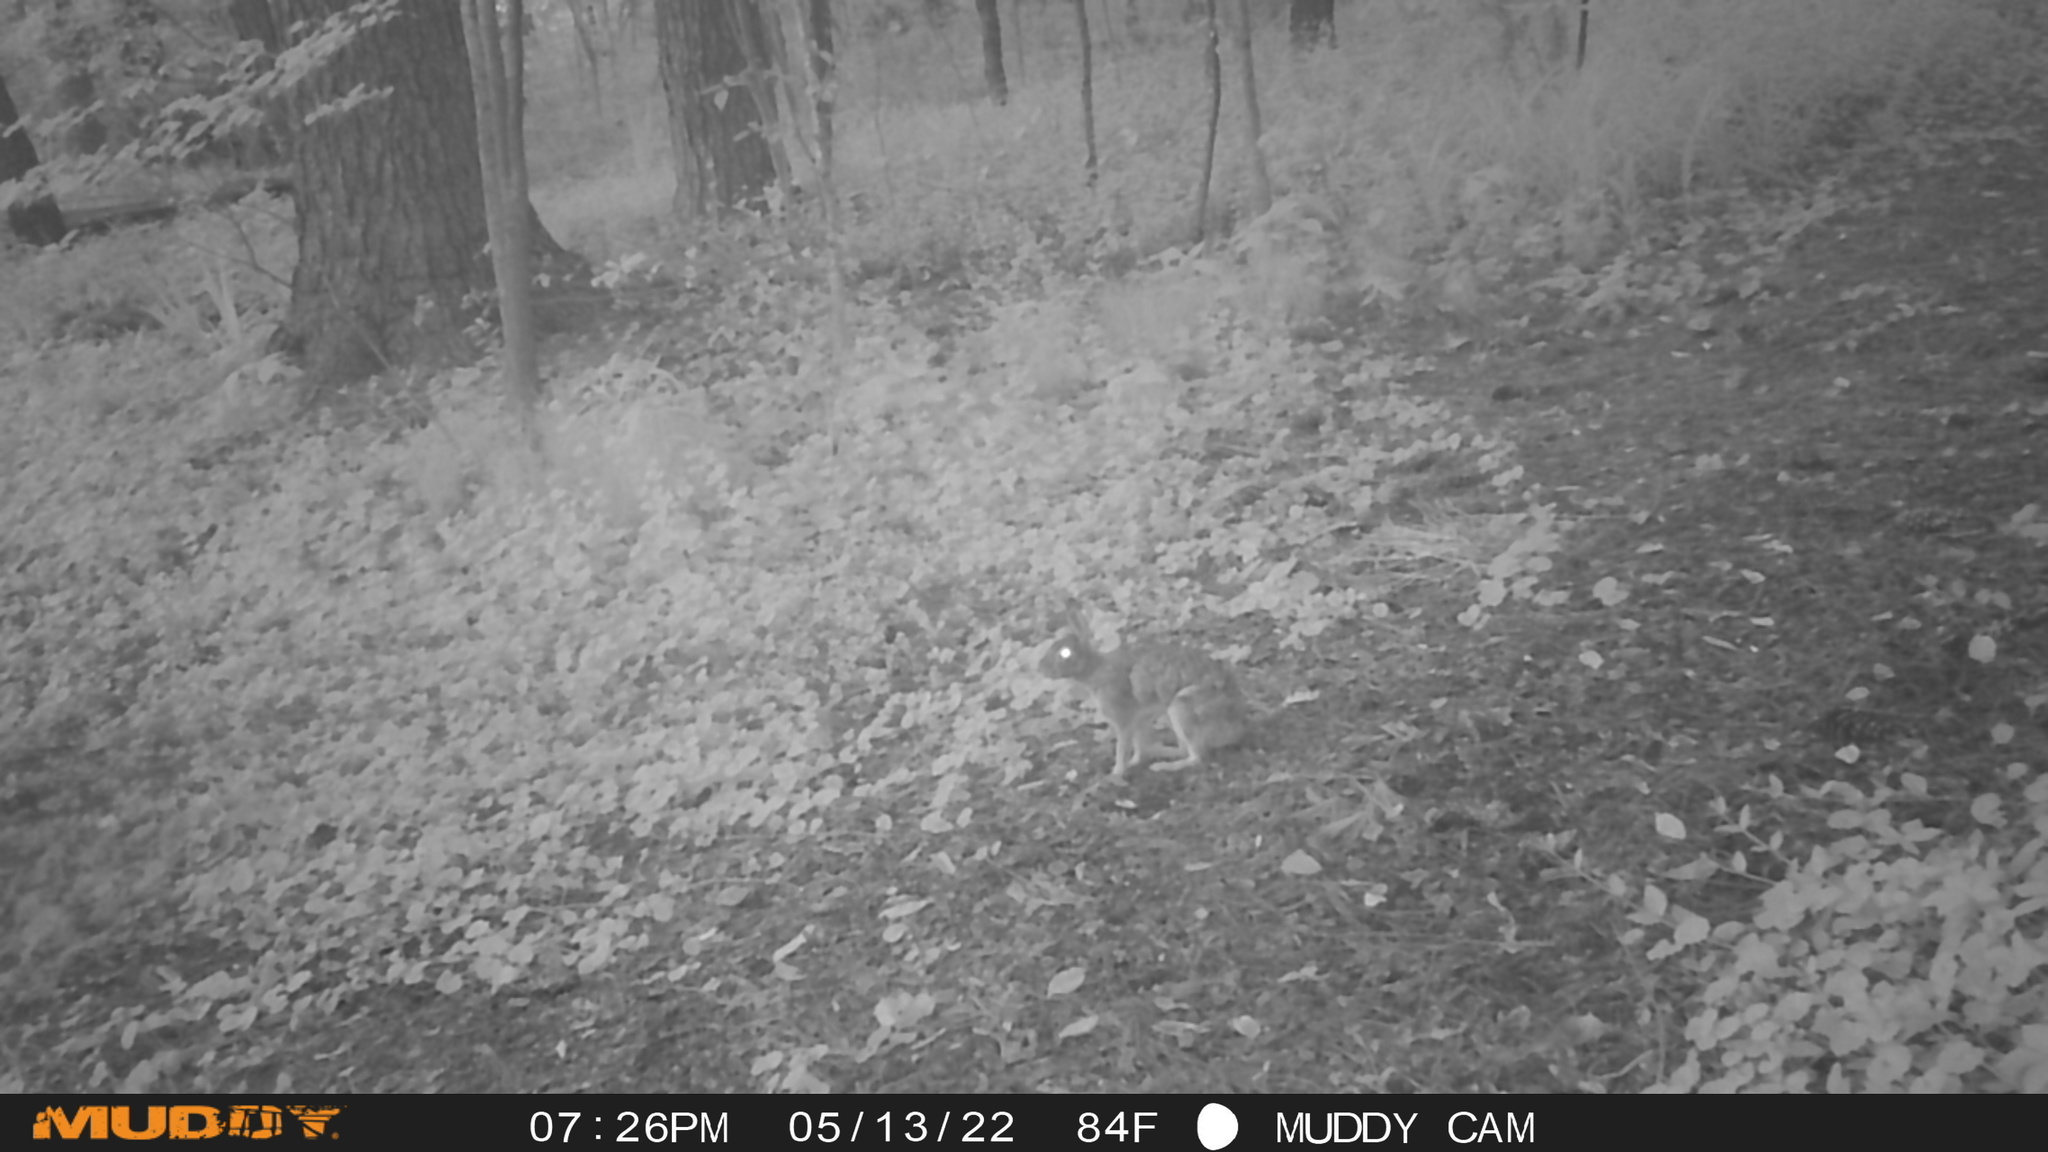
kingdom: Animalia
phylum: Chordata
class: Mammalia
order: Lagomorpha
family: Leporidae
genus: Sylvilagus
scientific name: Sylvilagus floridanus
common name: Eastern cottontail
